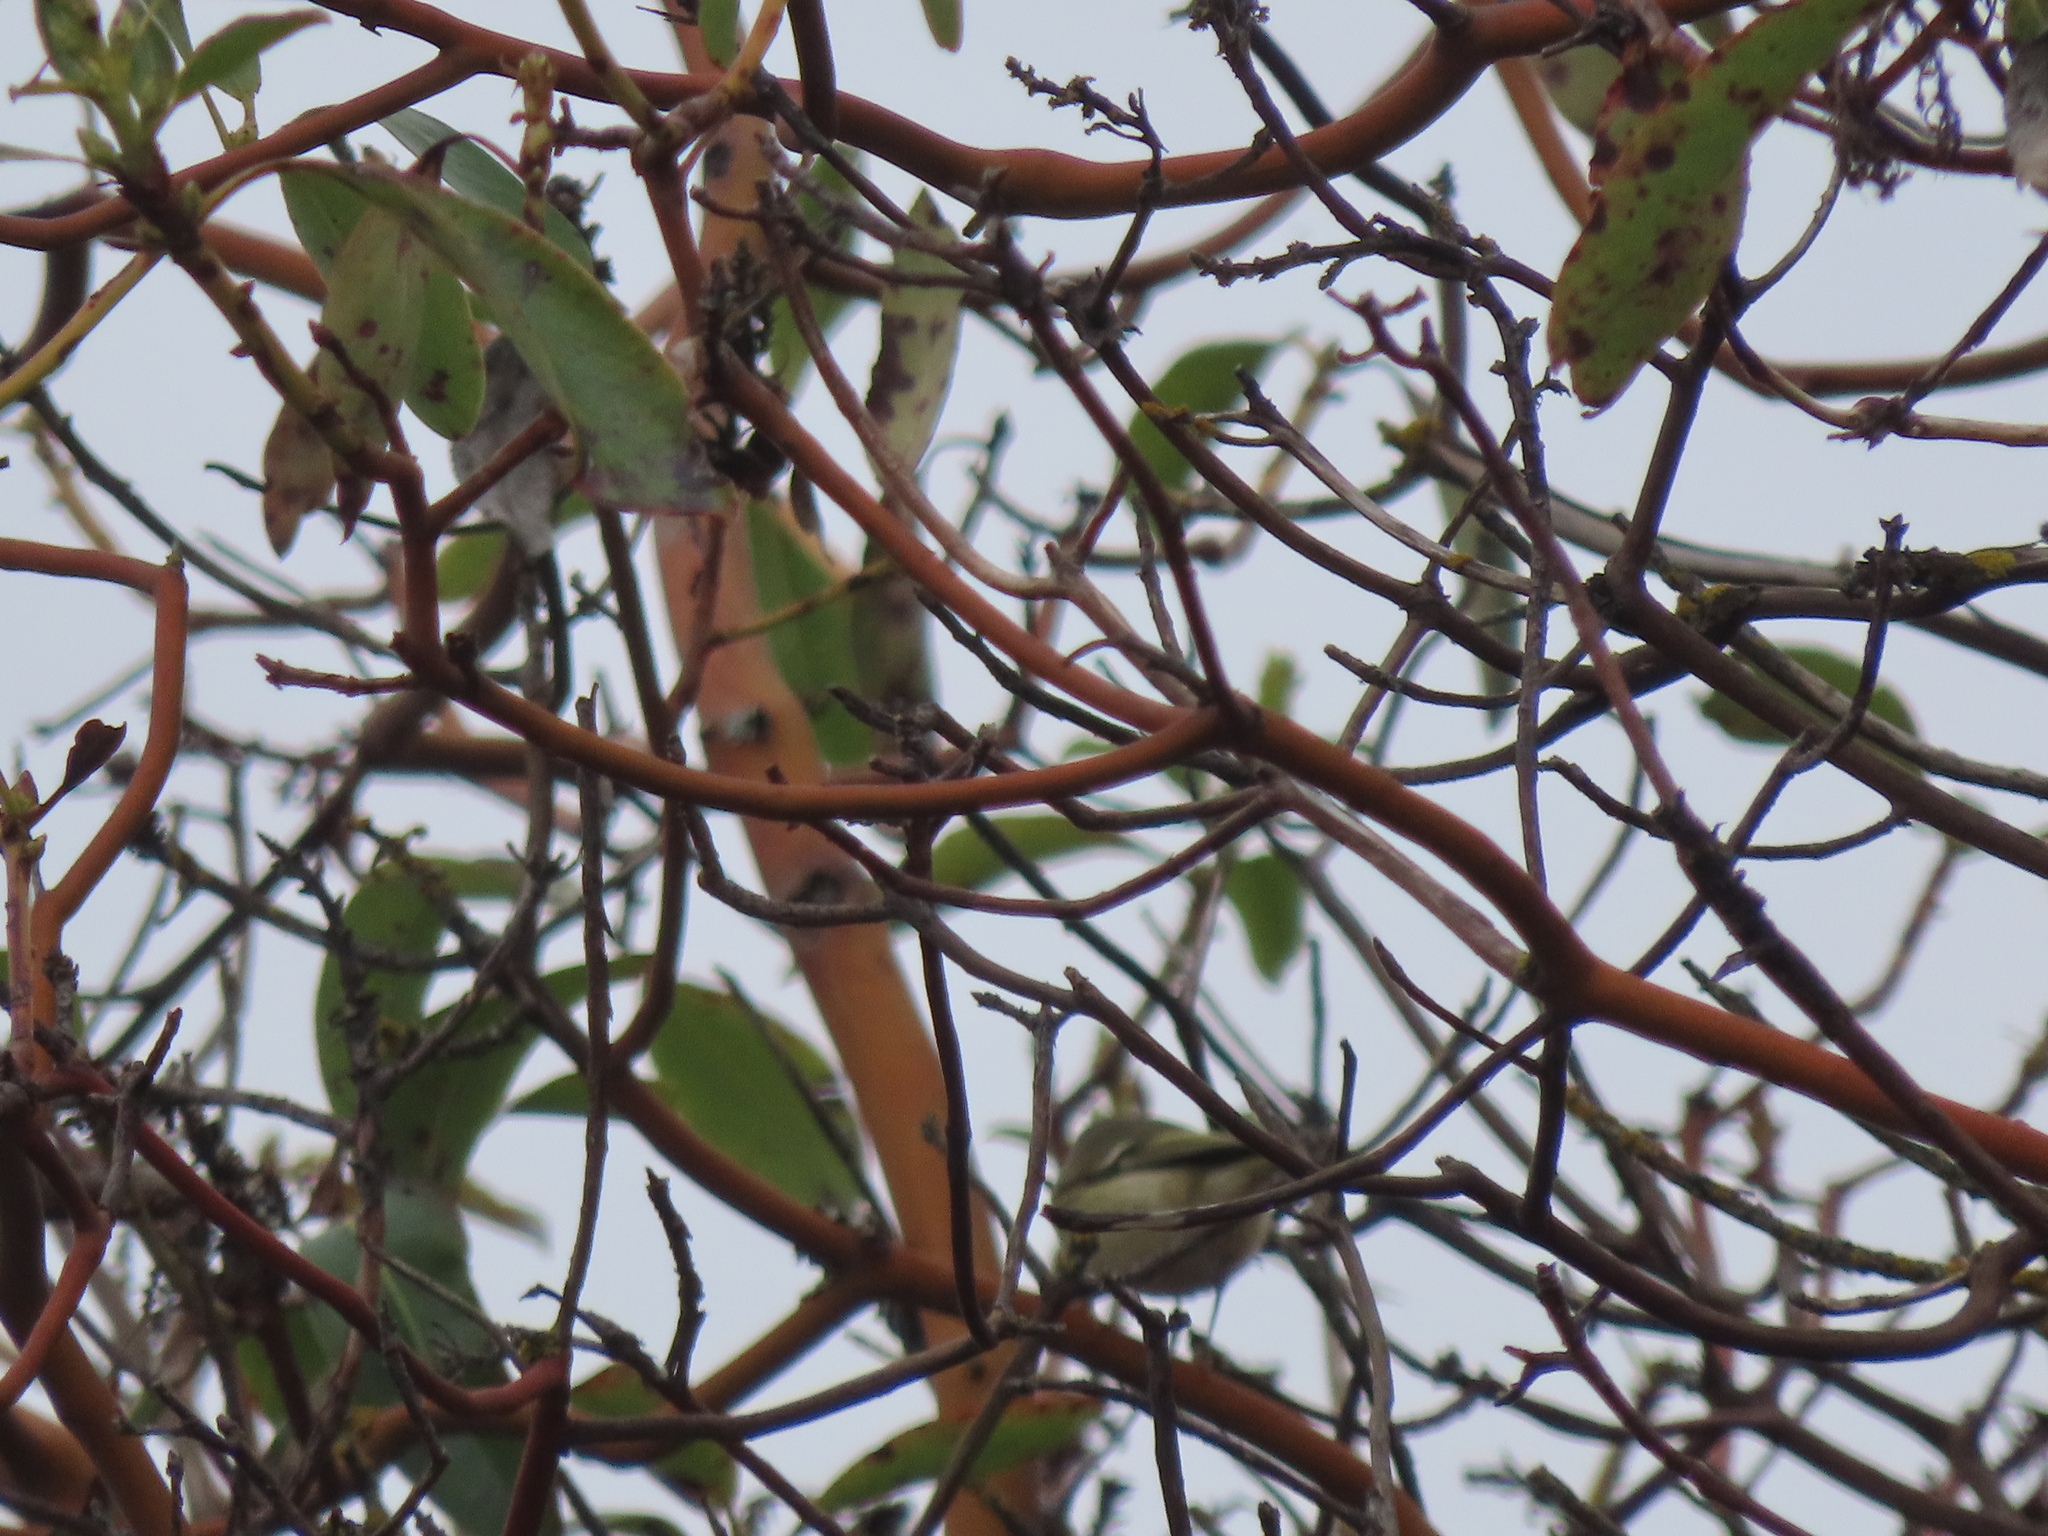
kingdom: Animalia
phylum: Chordata
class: Aves
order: Passeriformes
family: Regulidae
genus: Regulus
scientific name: Regulus calendula
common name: Ruby-crowned kinglet
